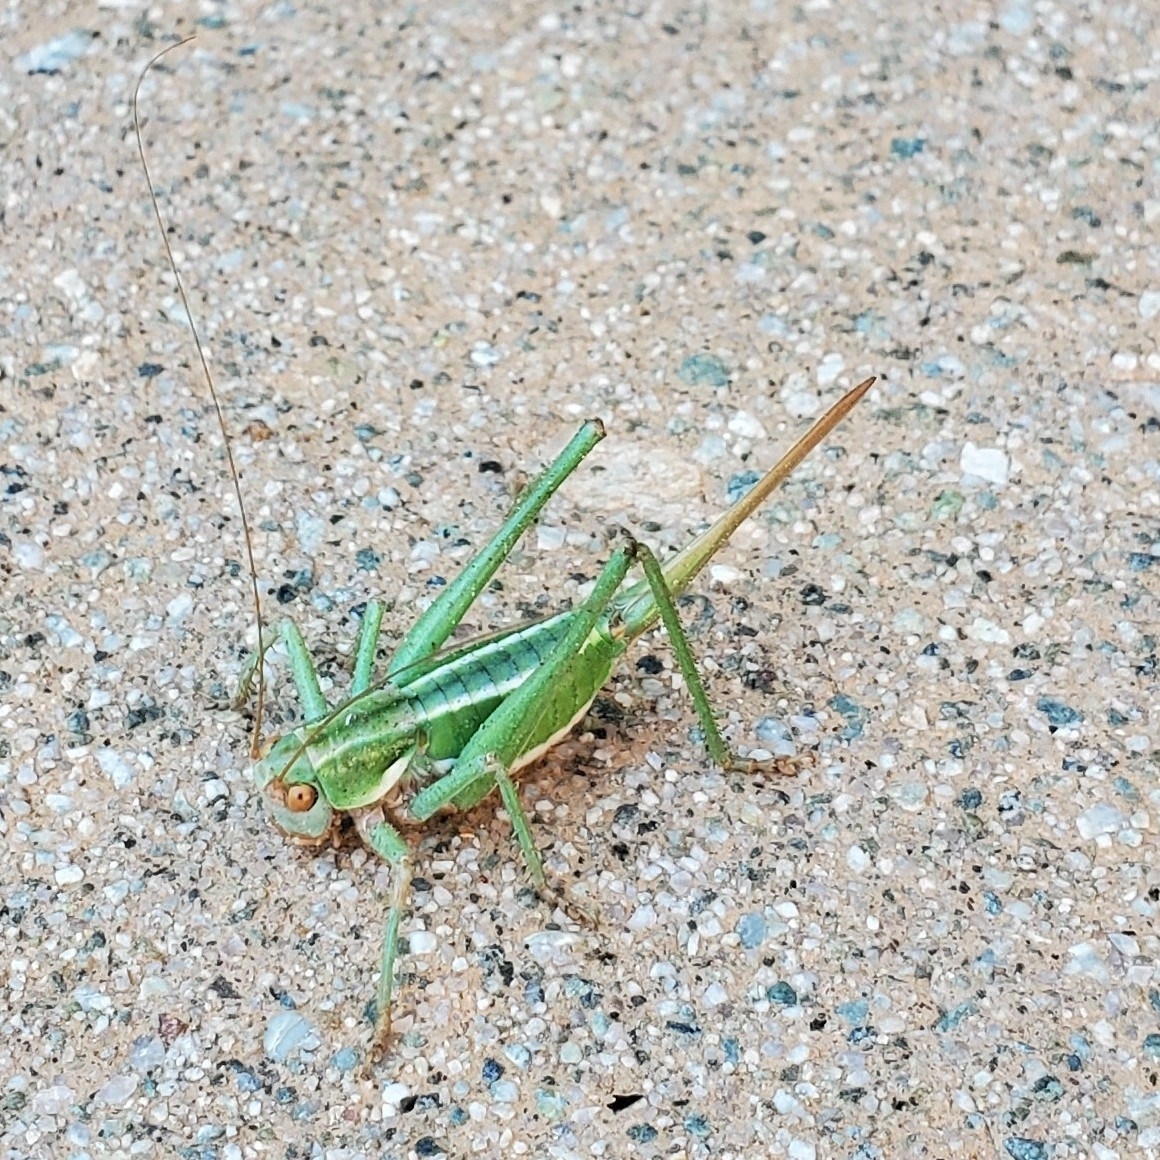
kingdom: Animalia
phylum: Arthropoda
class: Insecta
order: Orthoptera
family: Tettigoniidae
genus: Idiostatus
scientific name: Idiostatus viridis
